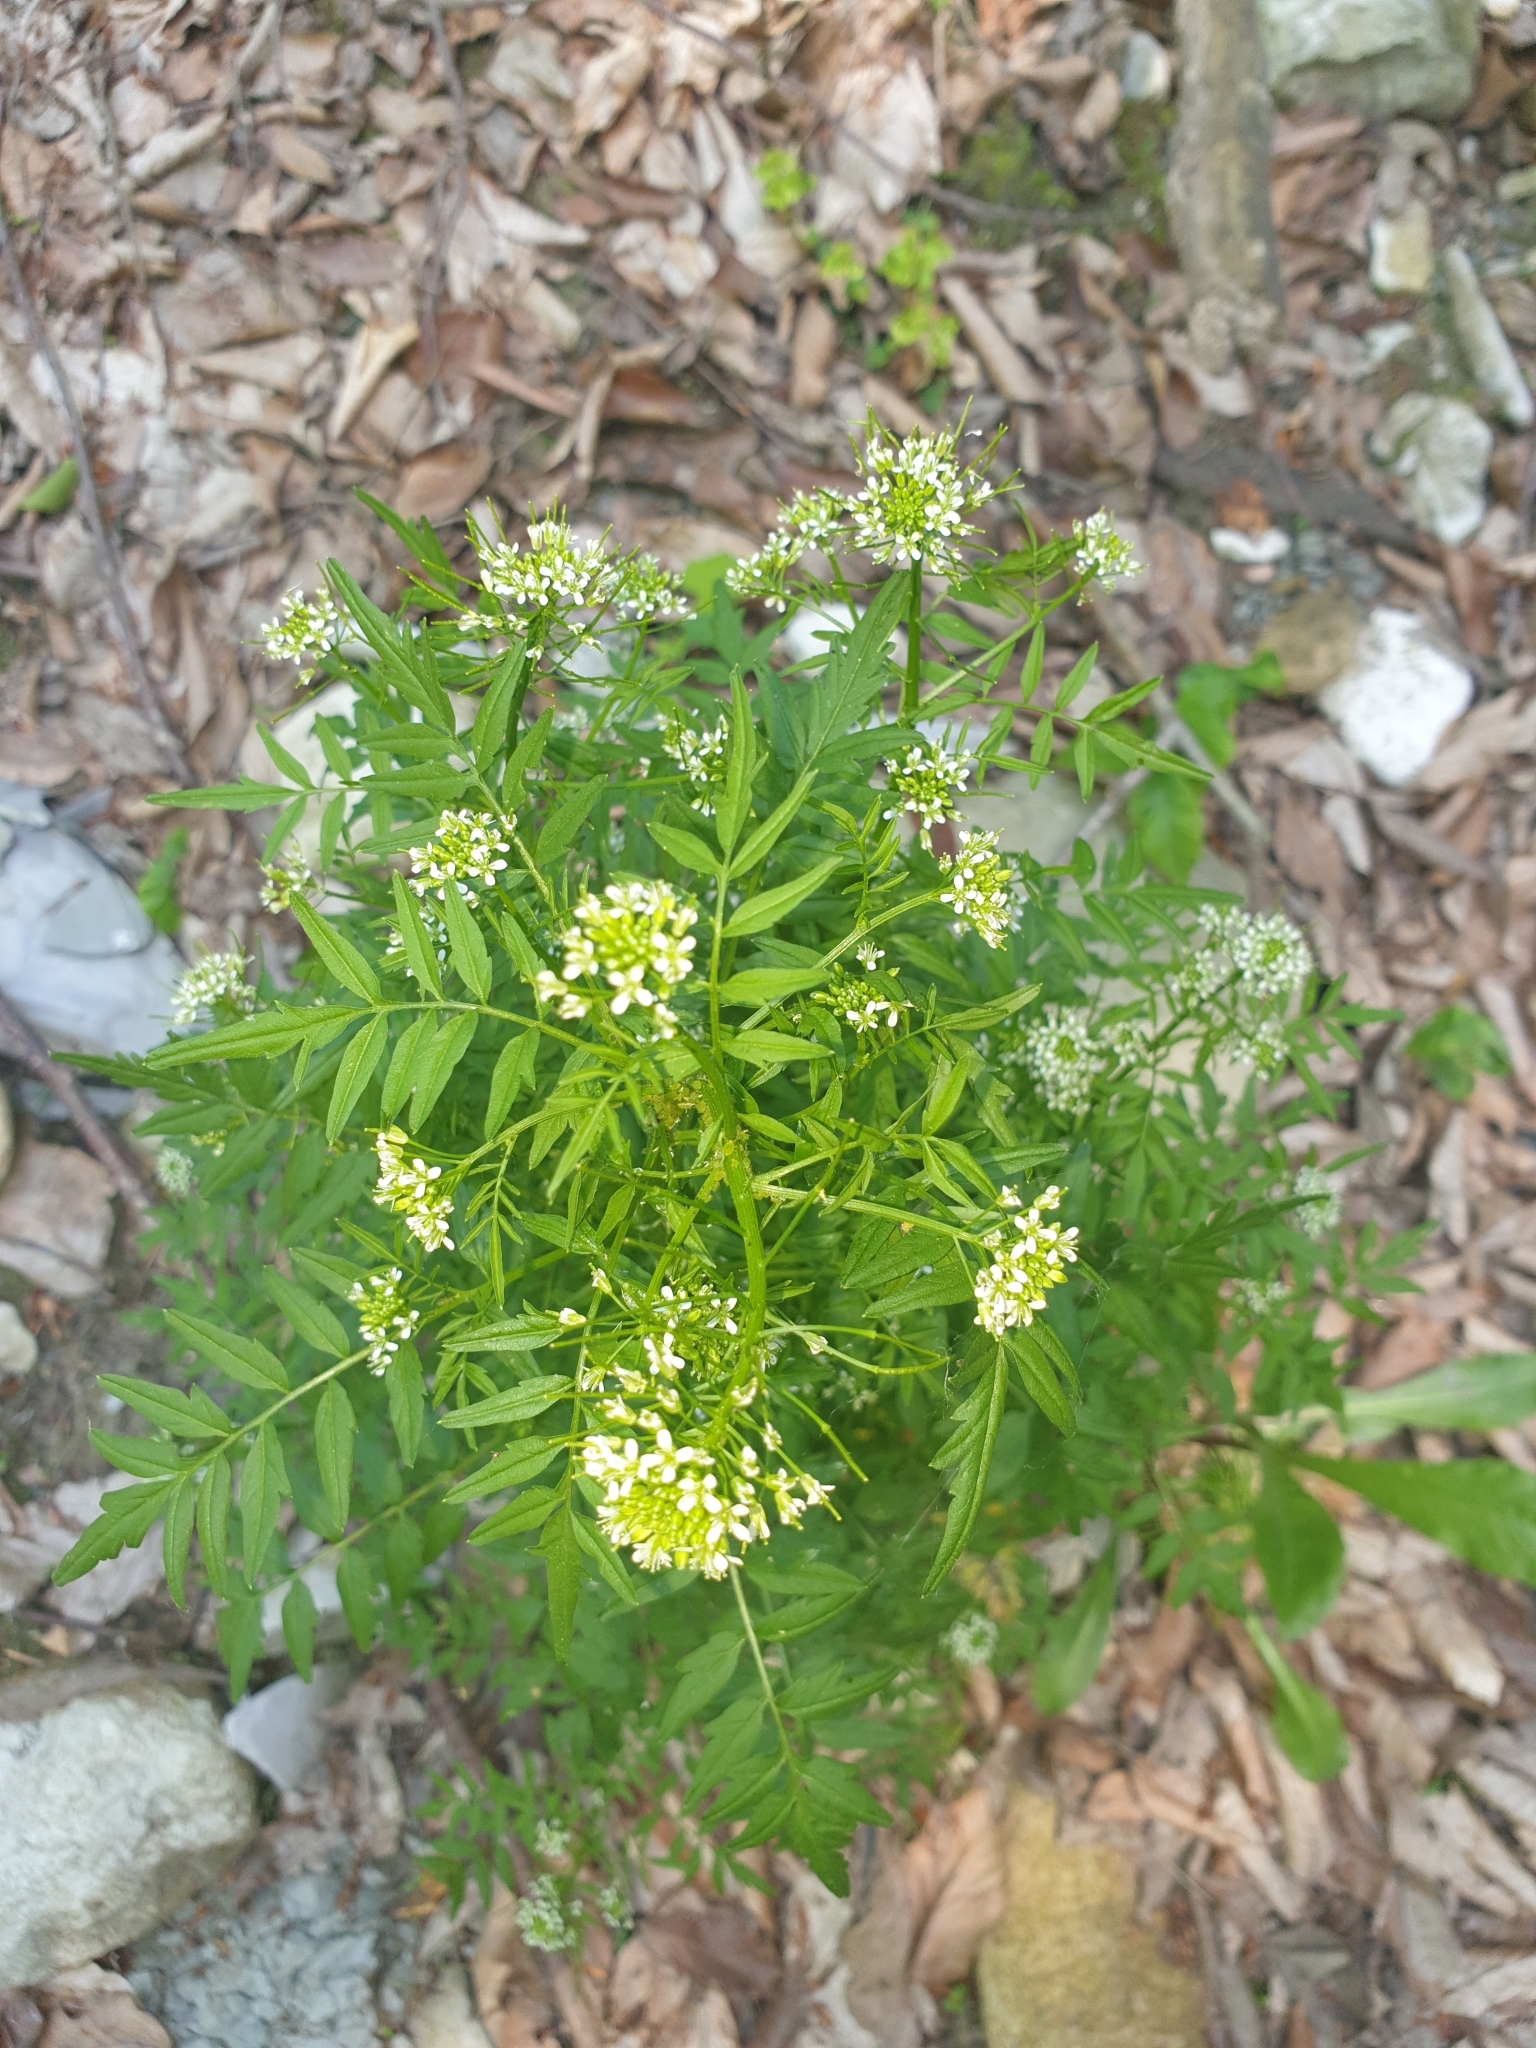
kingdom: Plantae
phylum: Tracheophyta
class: Magnoliopsida
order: Brassicales
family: Brassicaceae
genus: Cardamine
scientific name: Cardamine impatiens
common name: Narrow-leaved bitter-cress
